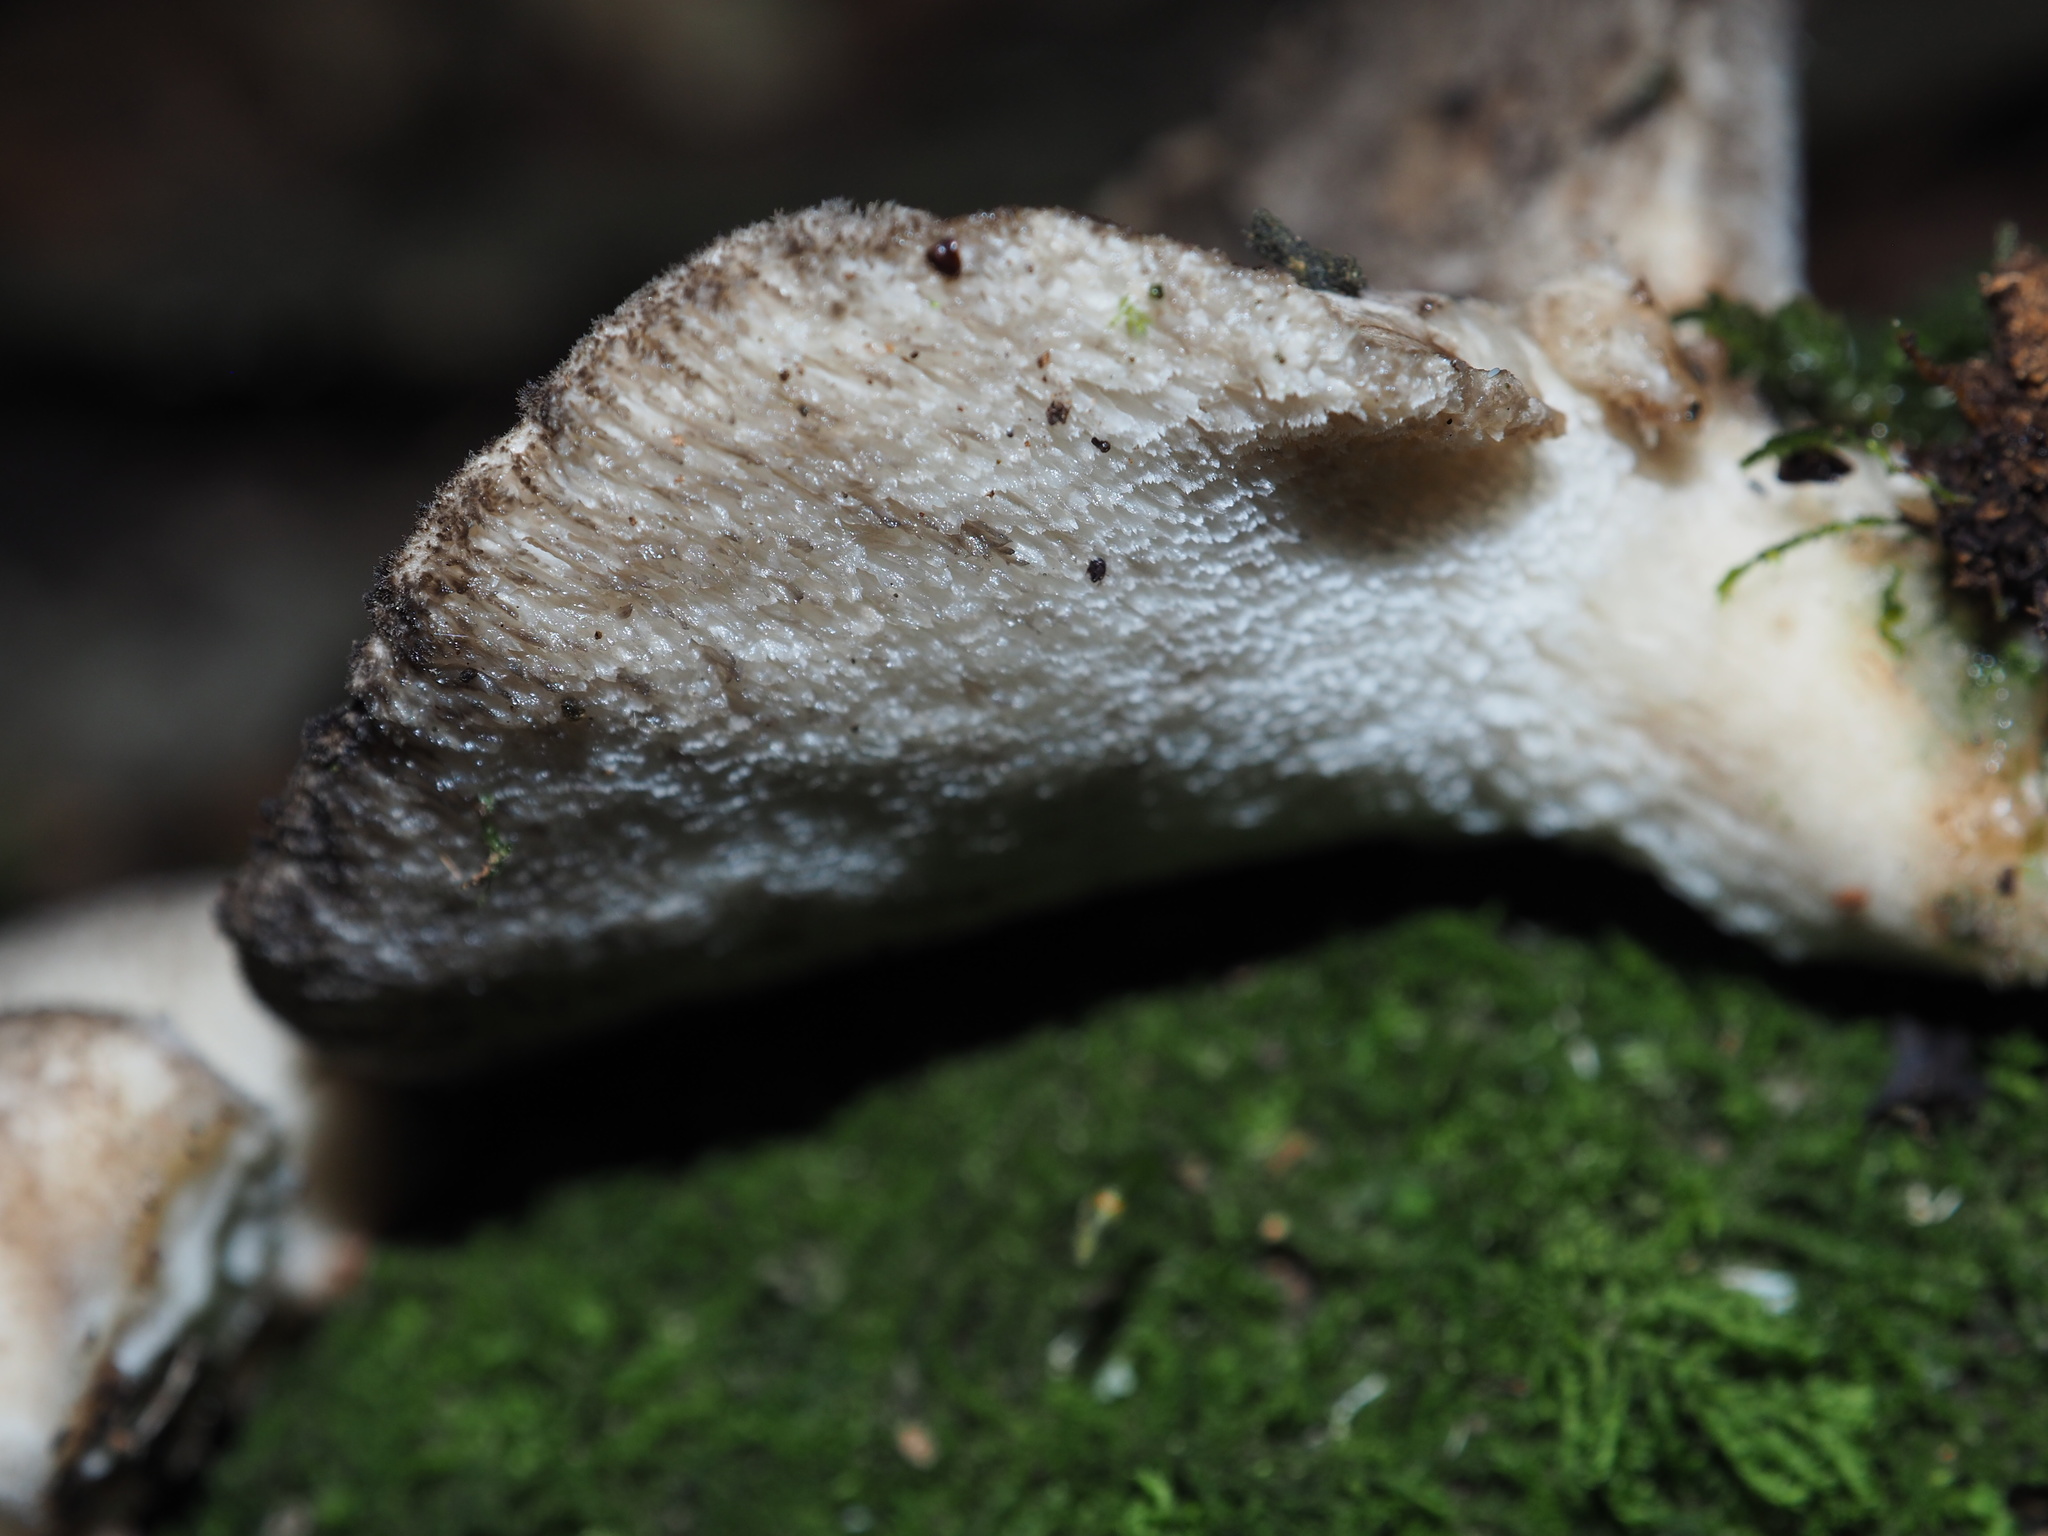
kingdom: Fungi
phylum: Basidiomycota
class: Agaricomycetes
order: Polyporales
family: Polyporaceae
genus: Bresadolia
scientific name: Bresadolia
